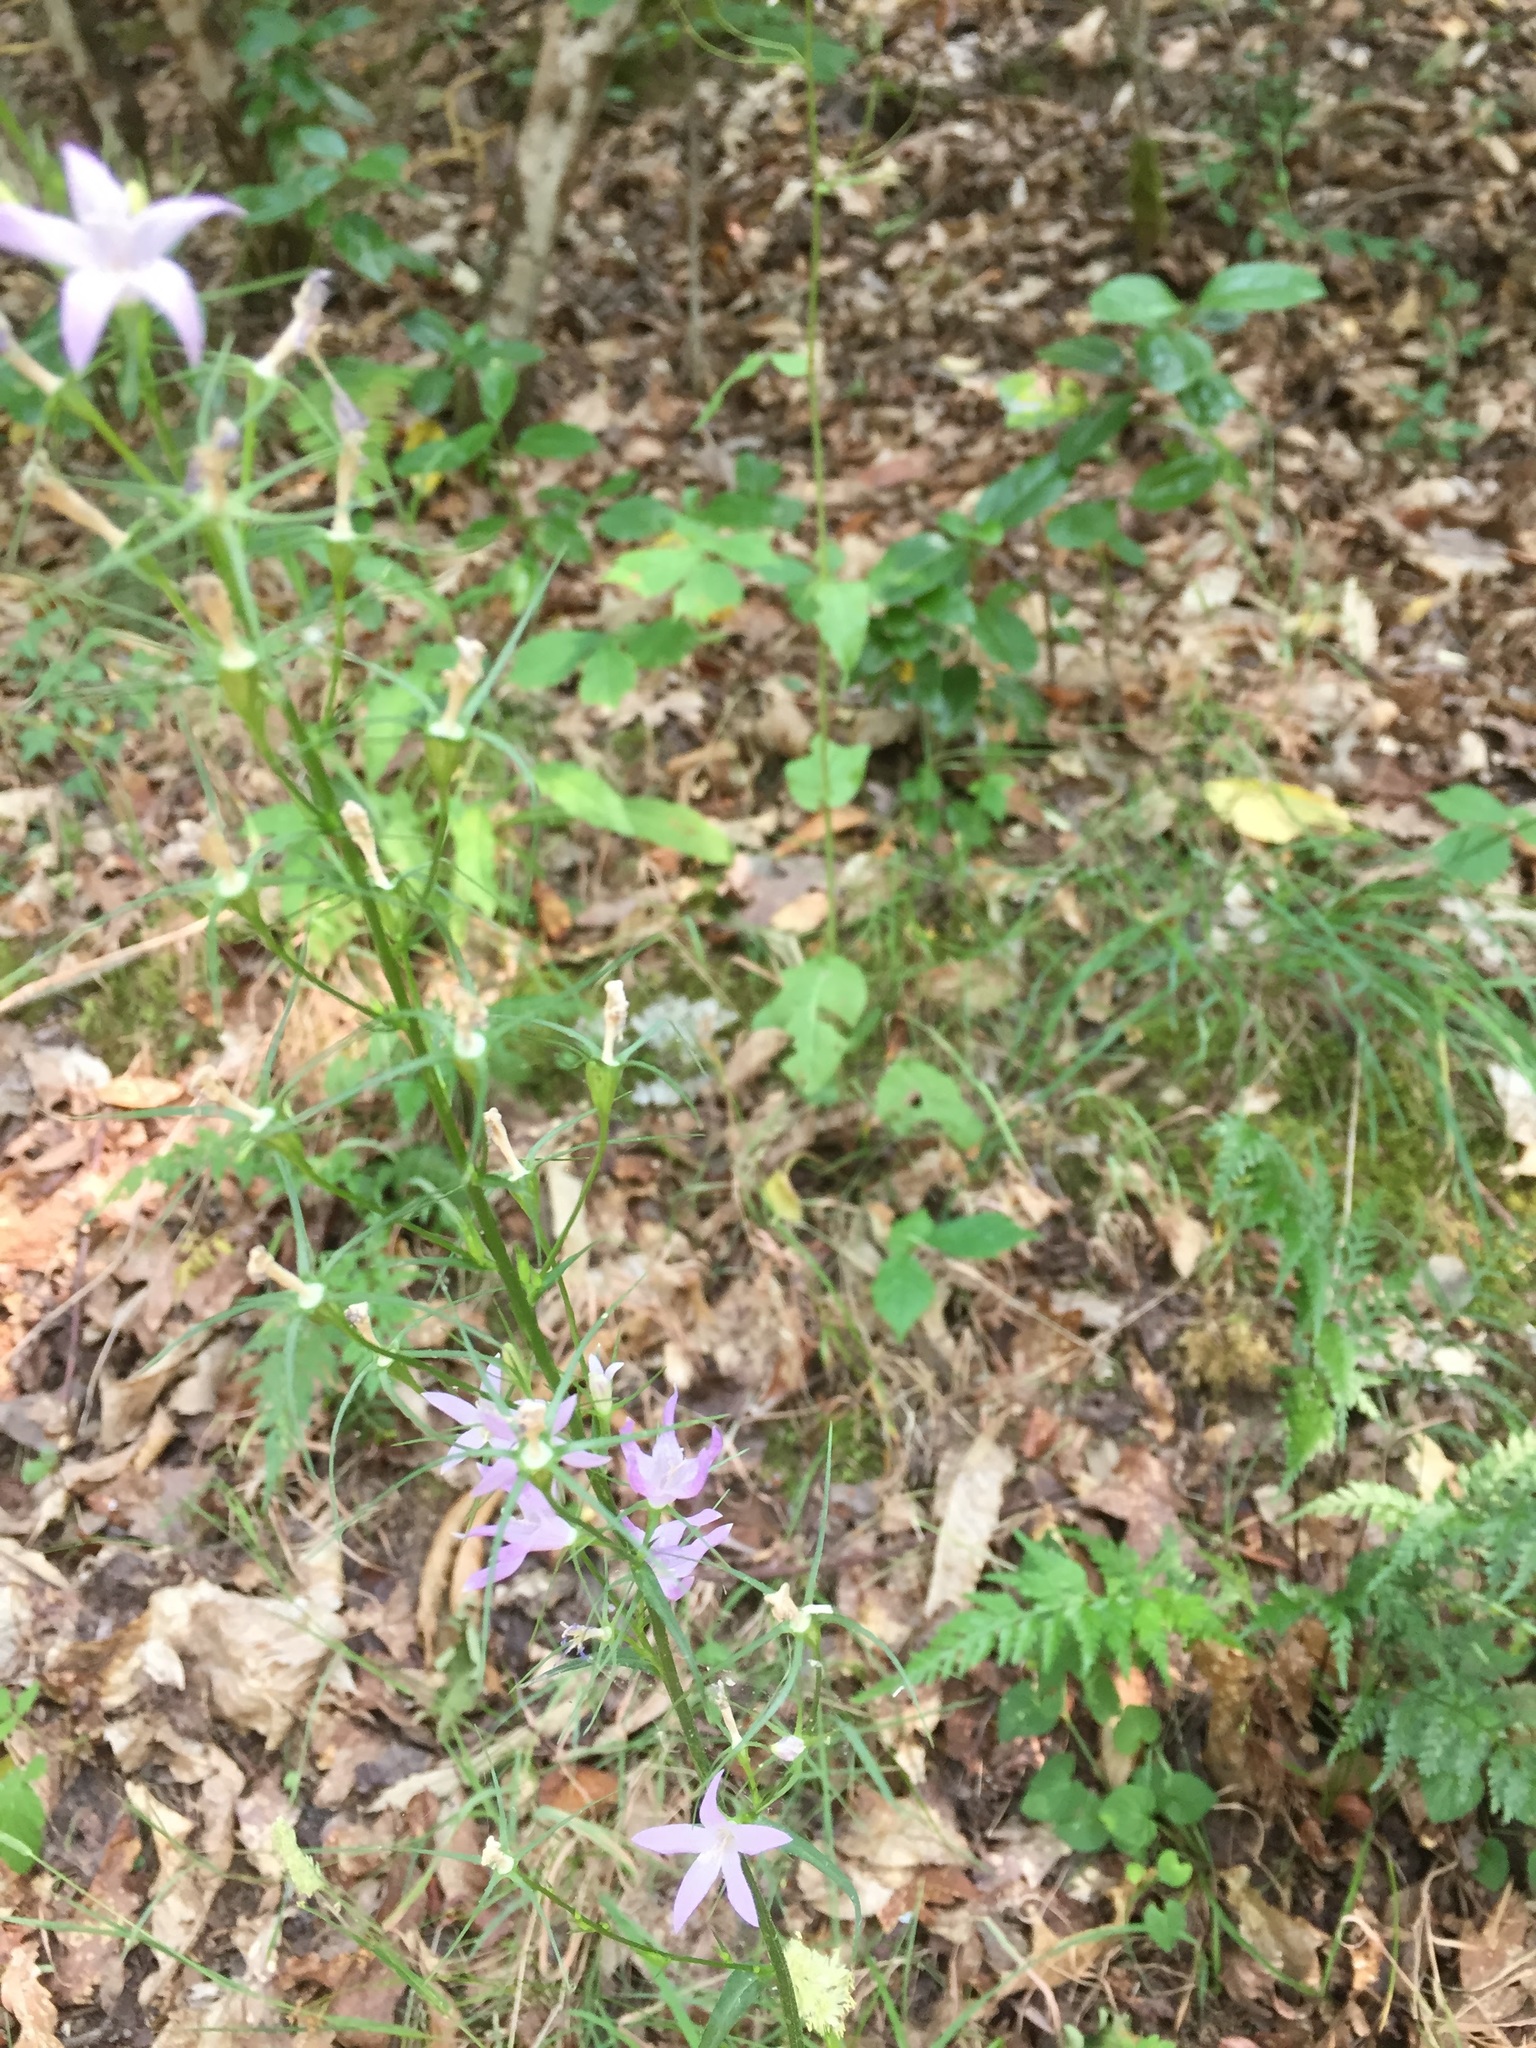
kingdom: Plantae
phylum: Tracheophyta
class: Magnoliopsida
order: Asterales
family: Campanulaceae
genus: Campanula
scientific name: Campanula rapunculus
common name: Rampion bellflower
